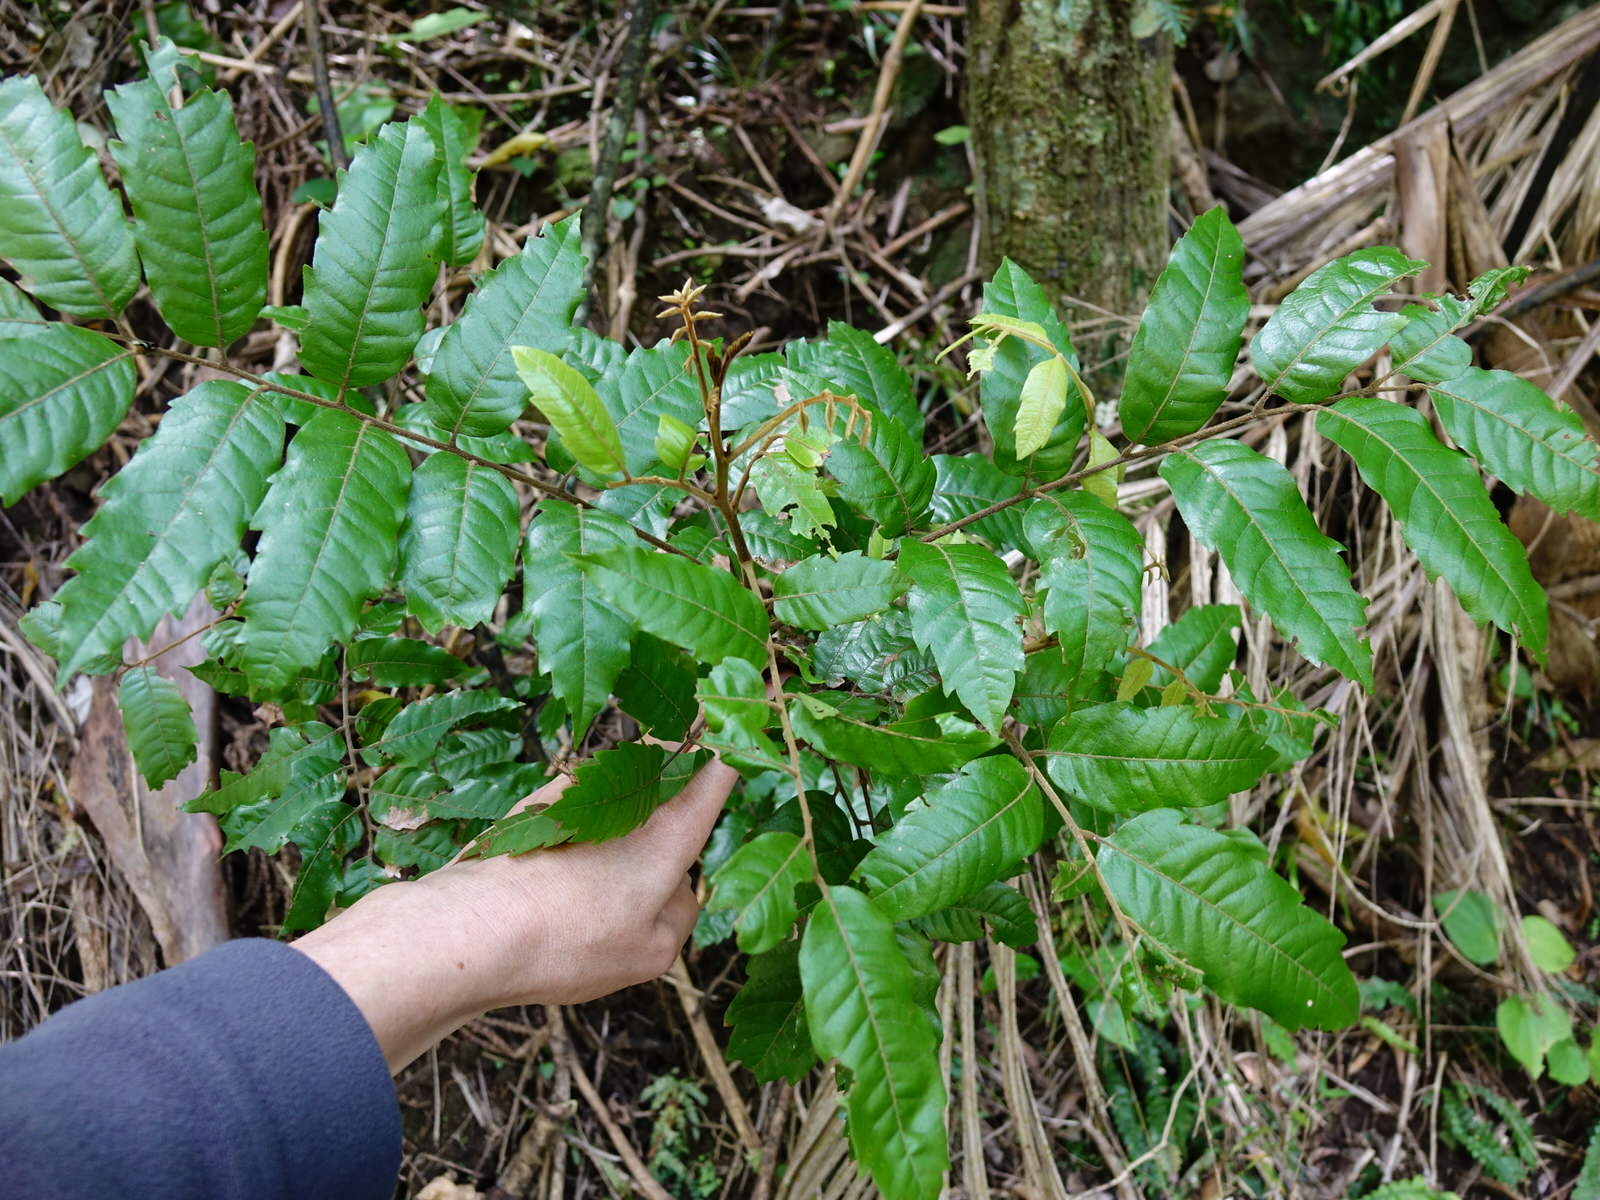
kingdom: Plantae
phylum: Tracheophyta
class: Magnoliopsida
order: Sapindales
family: Sapindaceae
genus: Alectryon
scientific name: Alectryon excelsus
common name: Three kings titoki
